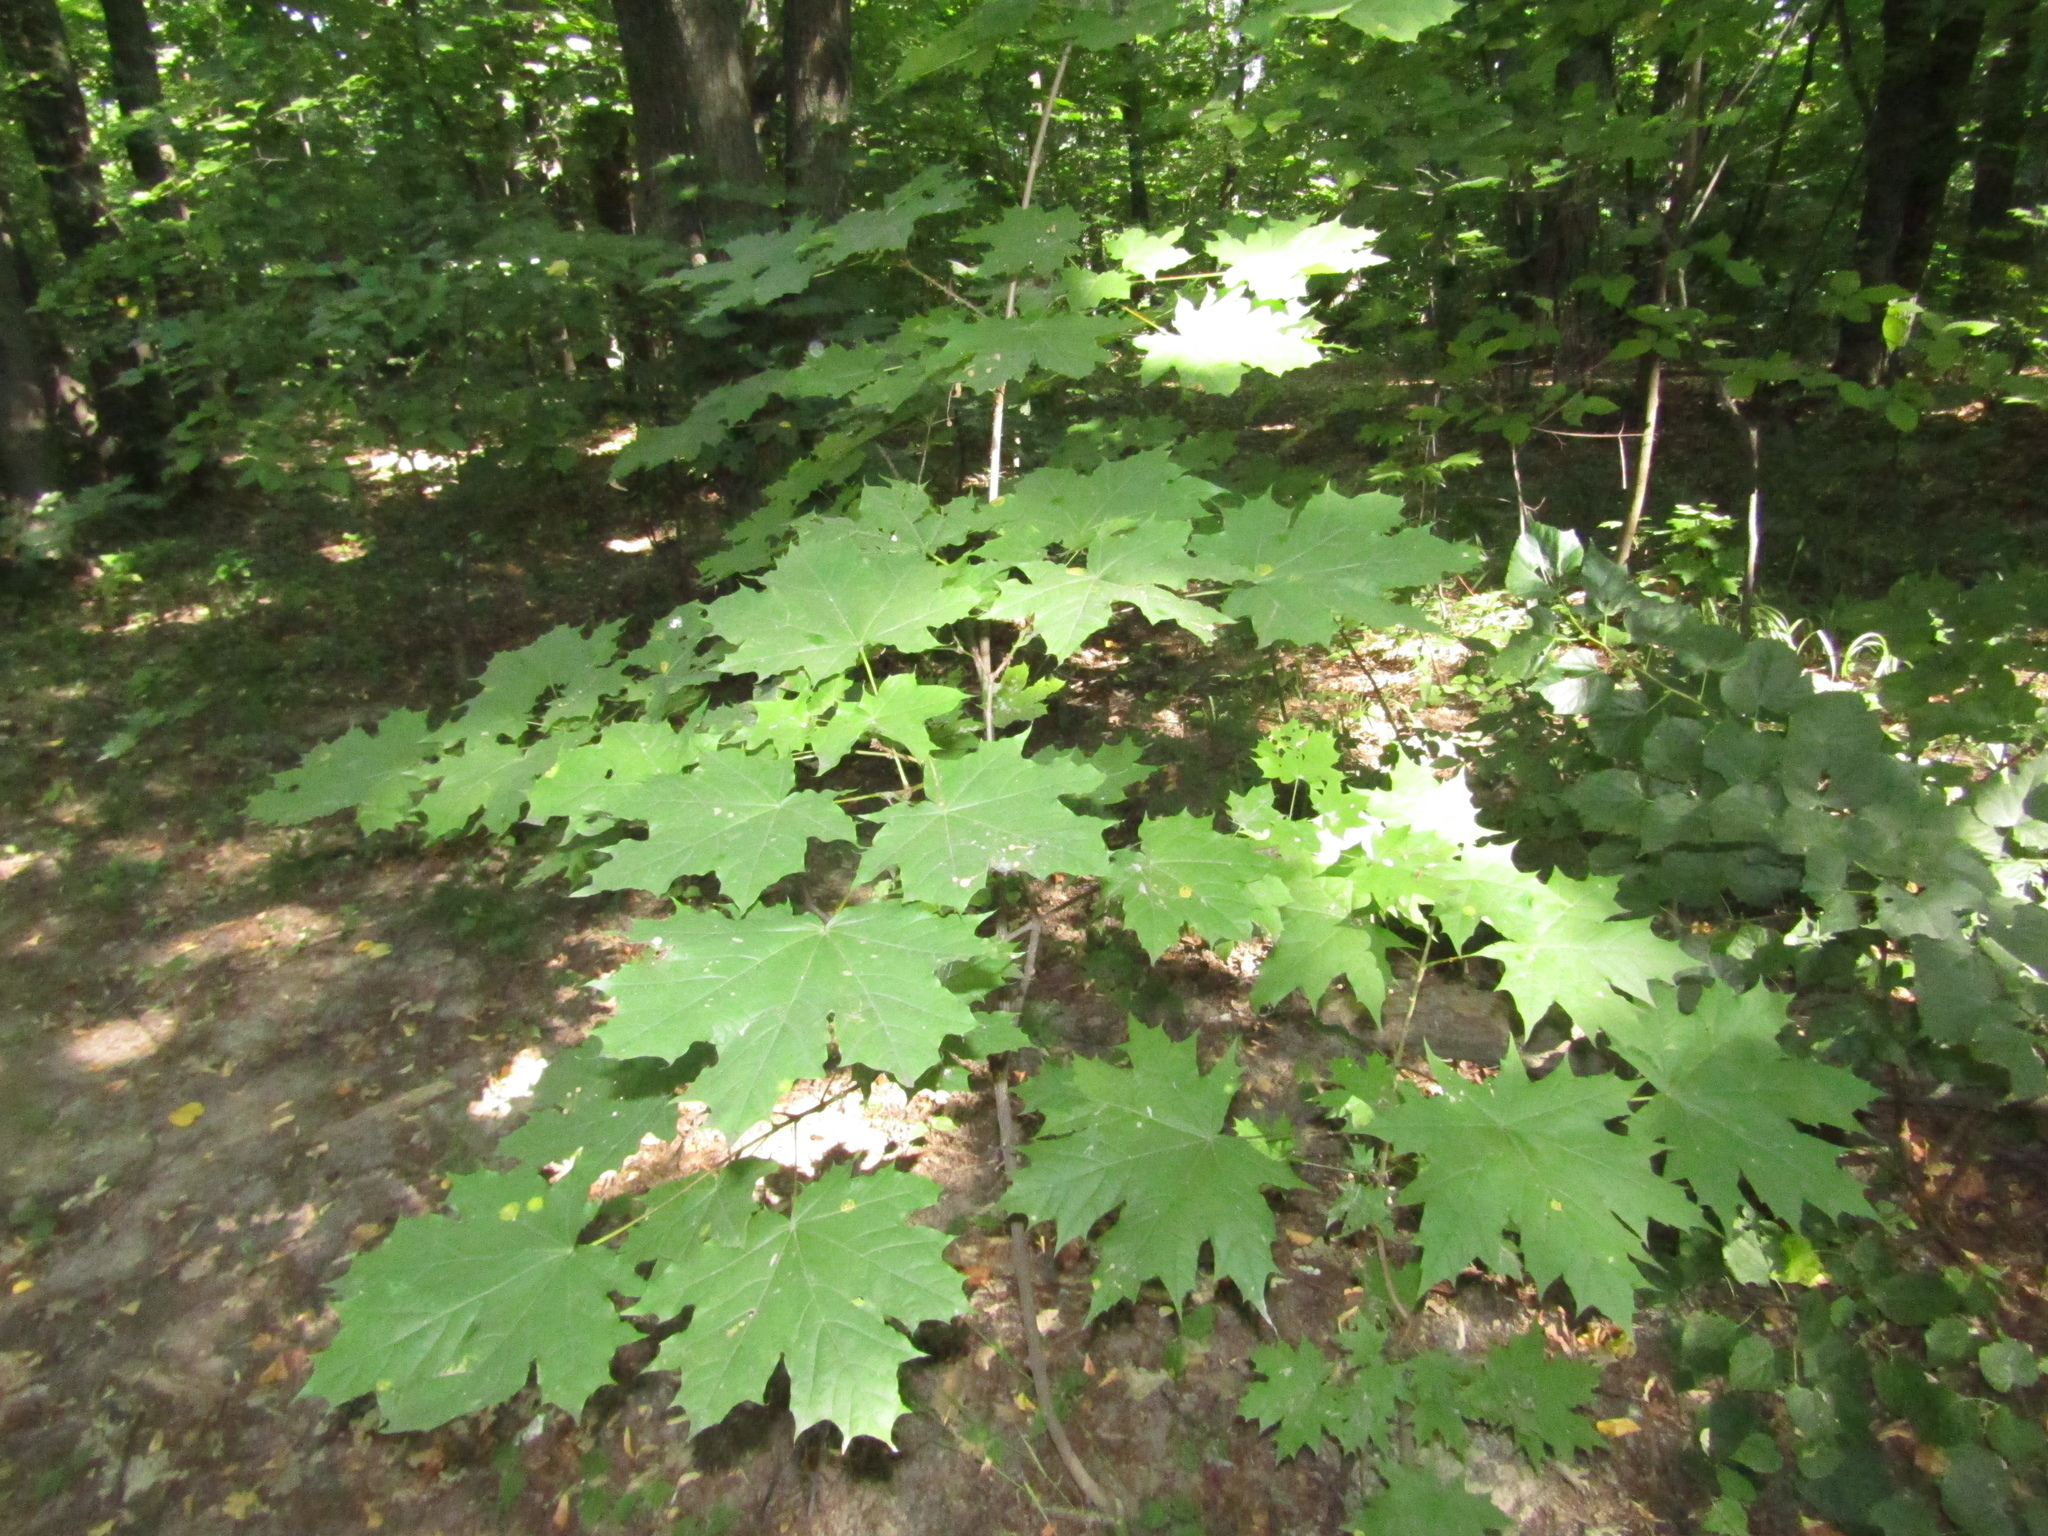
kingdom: Plantae
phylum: Tracheophyta
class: Magnoliopsida
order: Sapindales
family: Sapindaceae
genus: Acer
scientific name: Acer platanoides
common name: Norway maple
